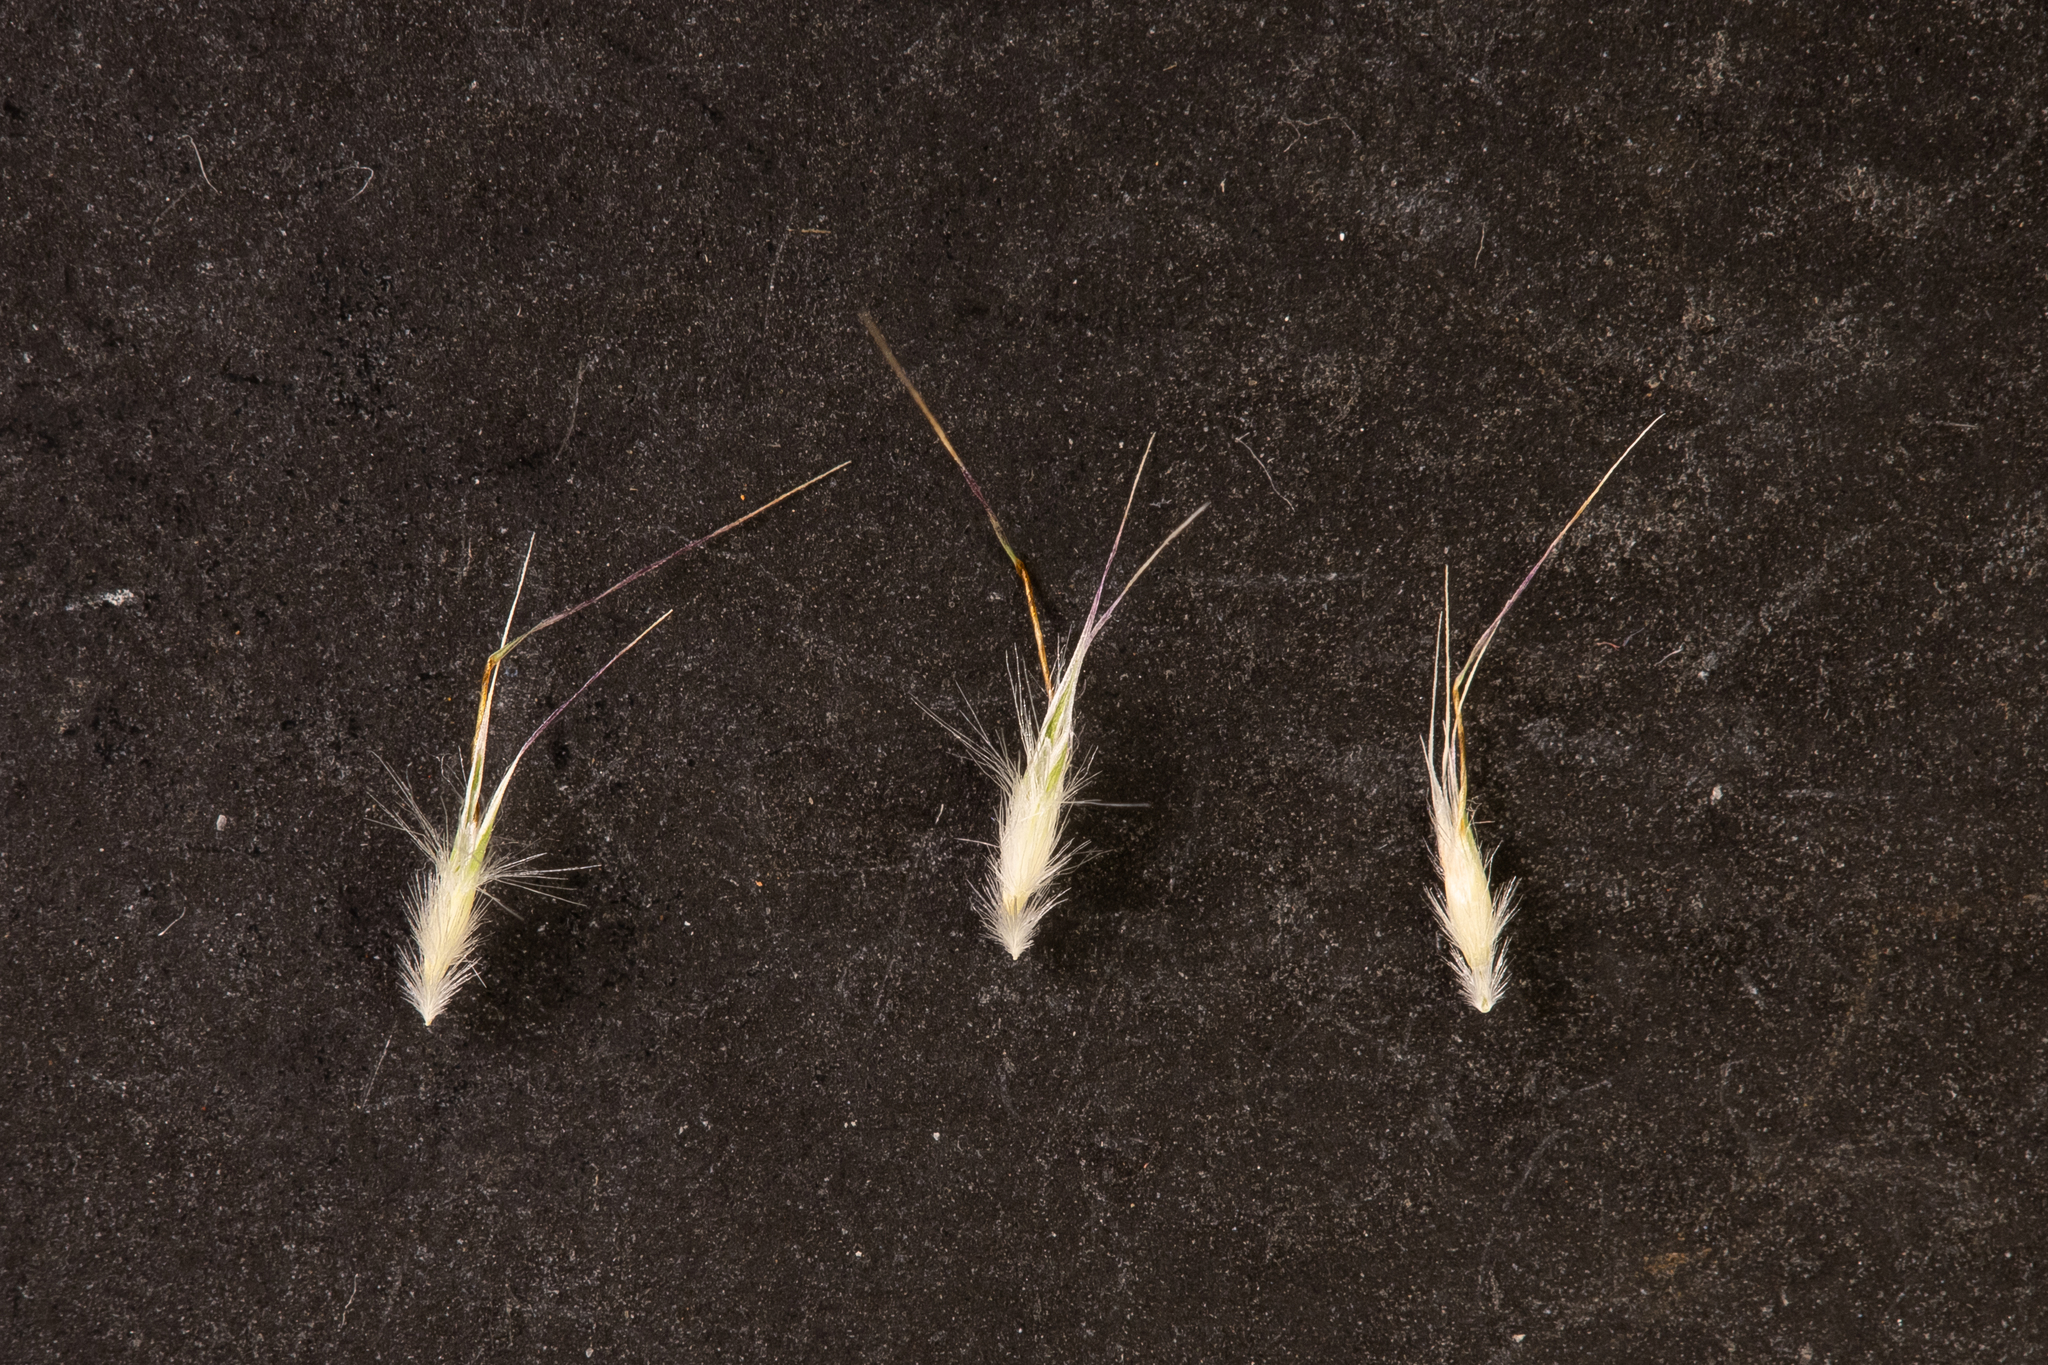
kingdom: Plantae
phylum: Tracheophyta
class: Liliopsida
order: Poales
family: Poaceae
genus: Rytidosperma
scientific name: Rytidosperma setaceum
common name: Small-flower wallaby grass
